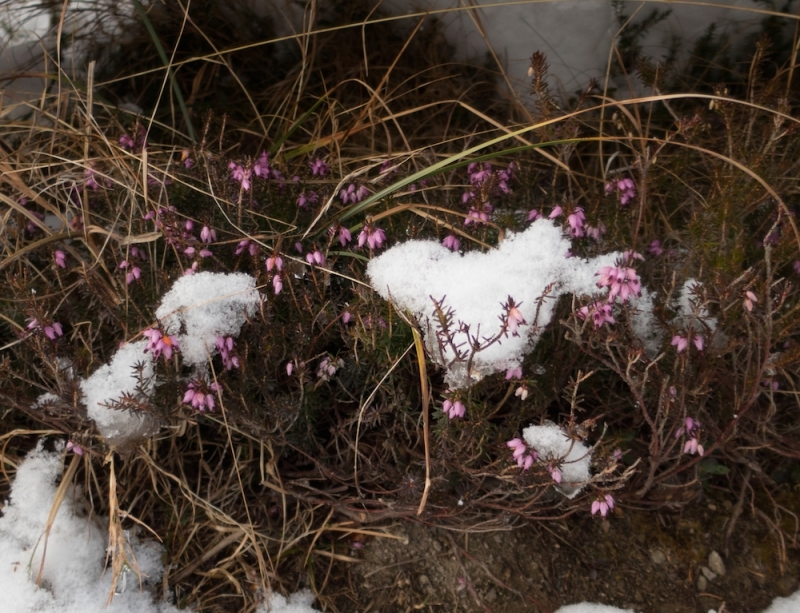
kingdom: Plantae
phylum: Tracheophyta
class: Magnoliopsida
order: Ericales
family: Ericaceae
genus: Erica
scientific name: Erica carnea
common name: Winter heath
